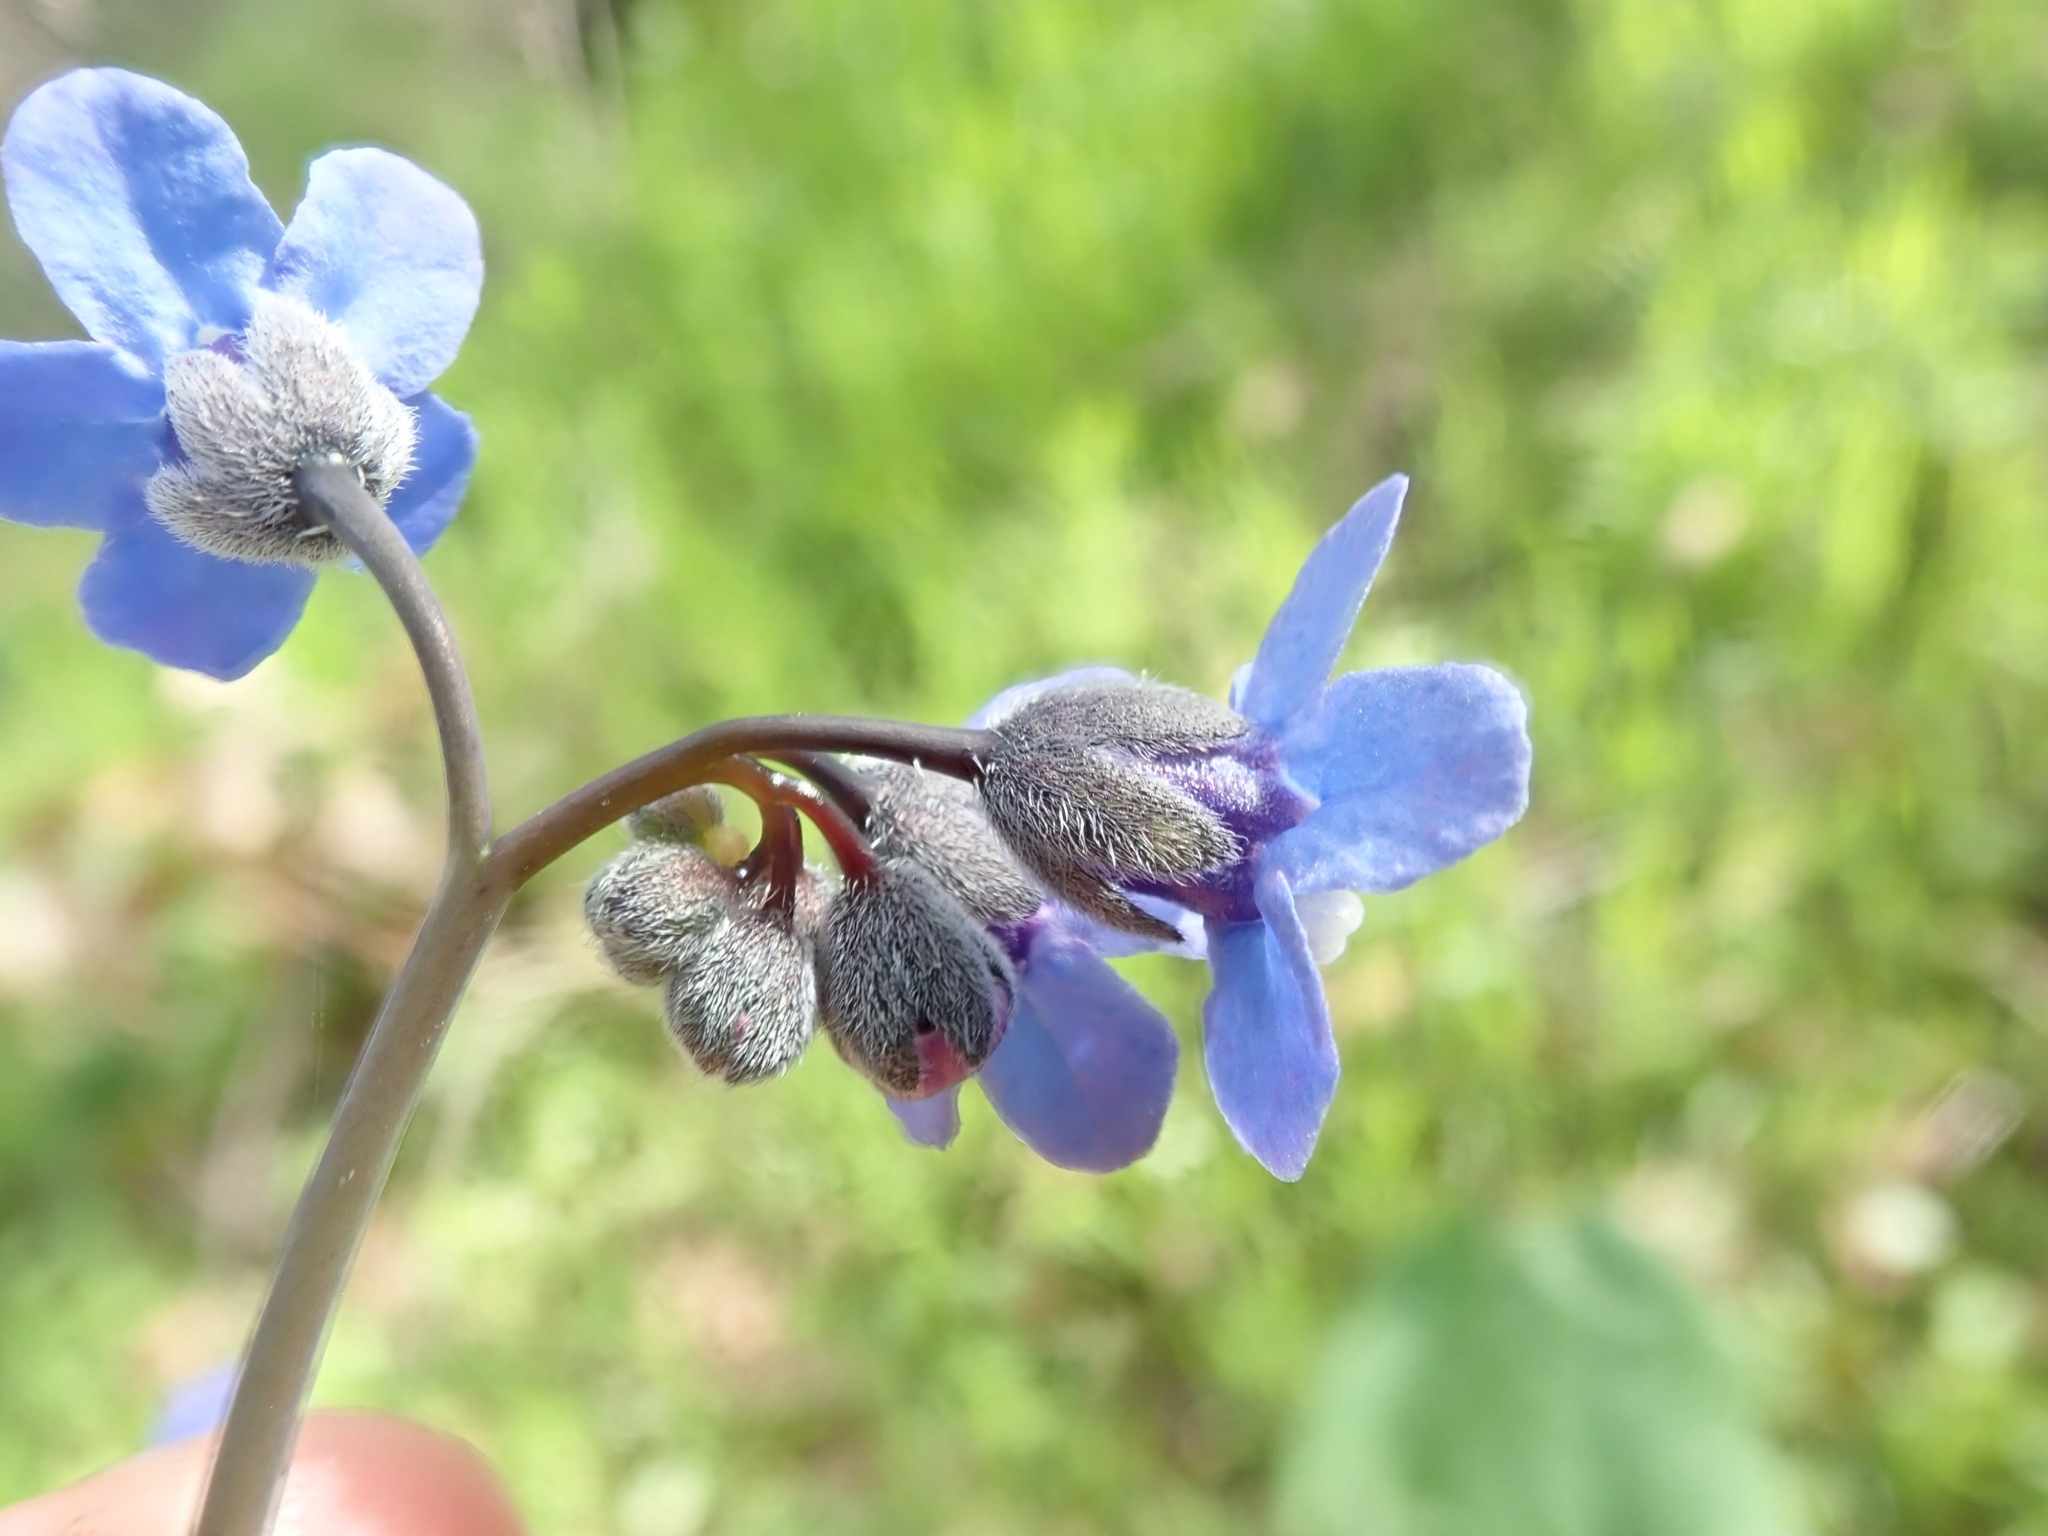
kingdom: Plantae
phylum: Tracheophyta
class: Magnoliopsida
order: Boraginales
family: Boraginaceae
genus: Adelinia
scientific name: Adelinia grande
